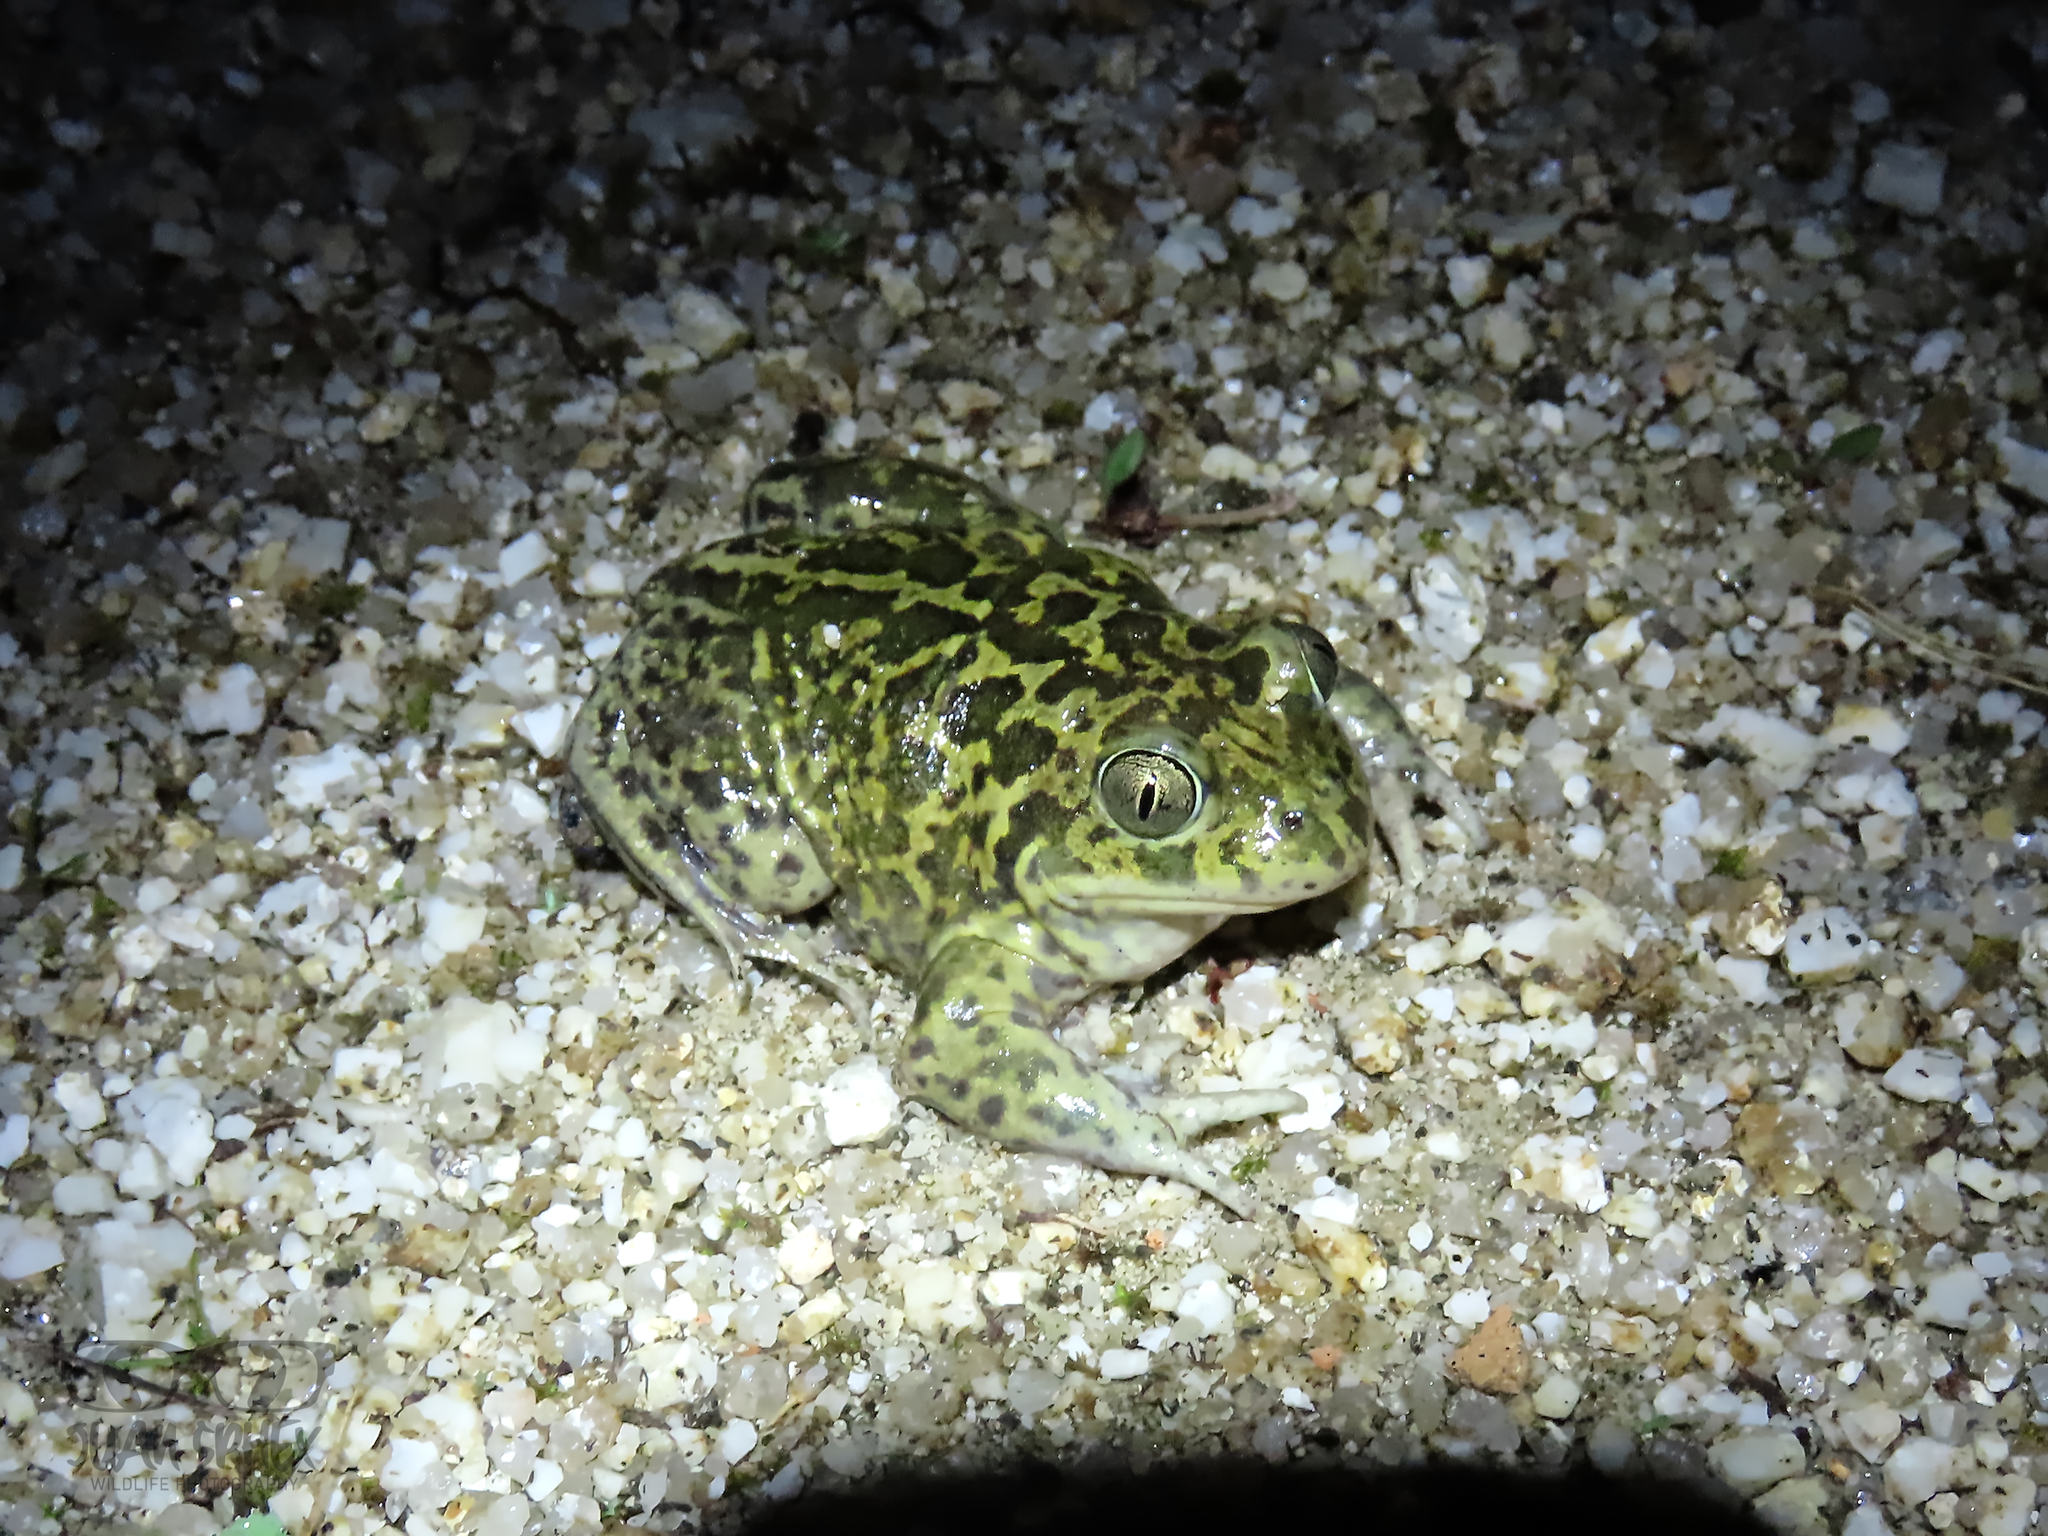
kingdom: Animalia
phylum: Chordata
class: Amphibia
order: Anura
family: Pelobatidae
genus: Pelobates
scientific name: Pelobates cultripes
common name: Western spadefoot
